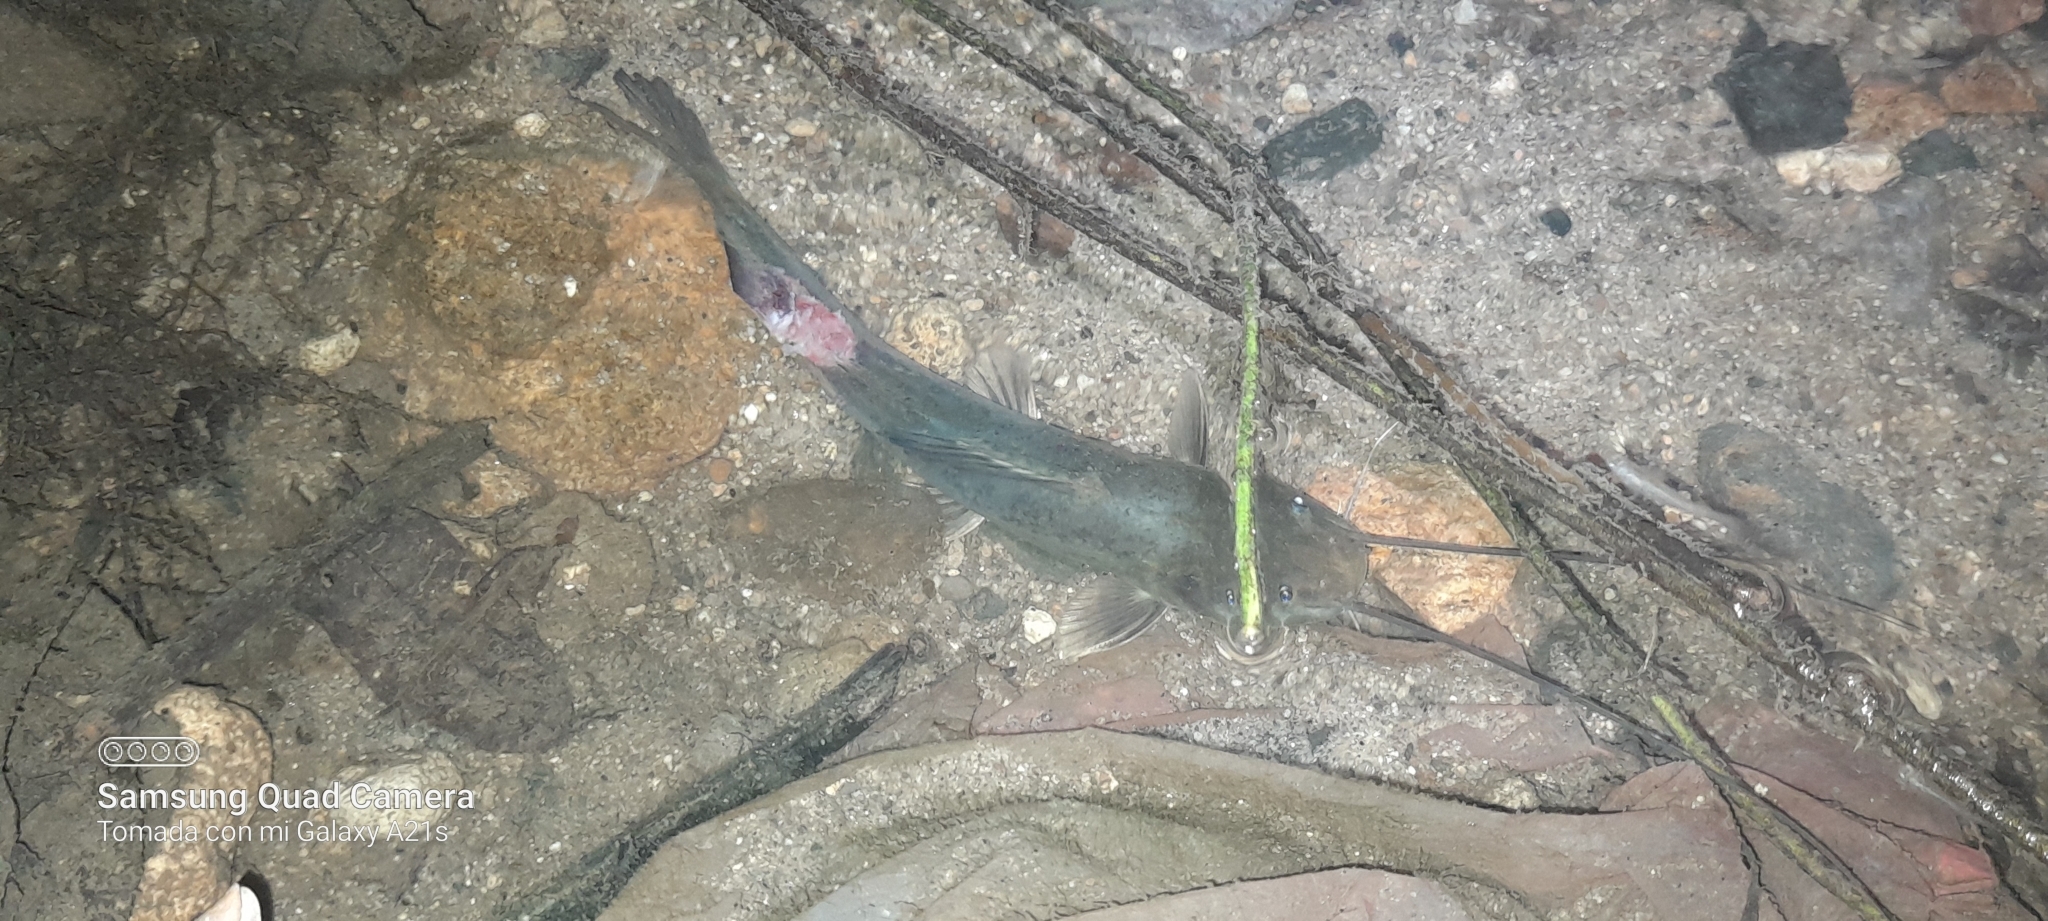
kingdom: Animalia
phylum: Chordata
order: Siluriformes
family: Heptapteridae
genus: Rhamdia
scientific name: Rhamdia guatemalensis
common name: Pale catfish
